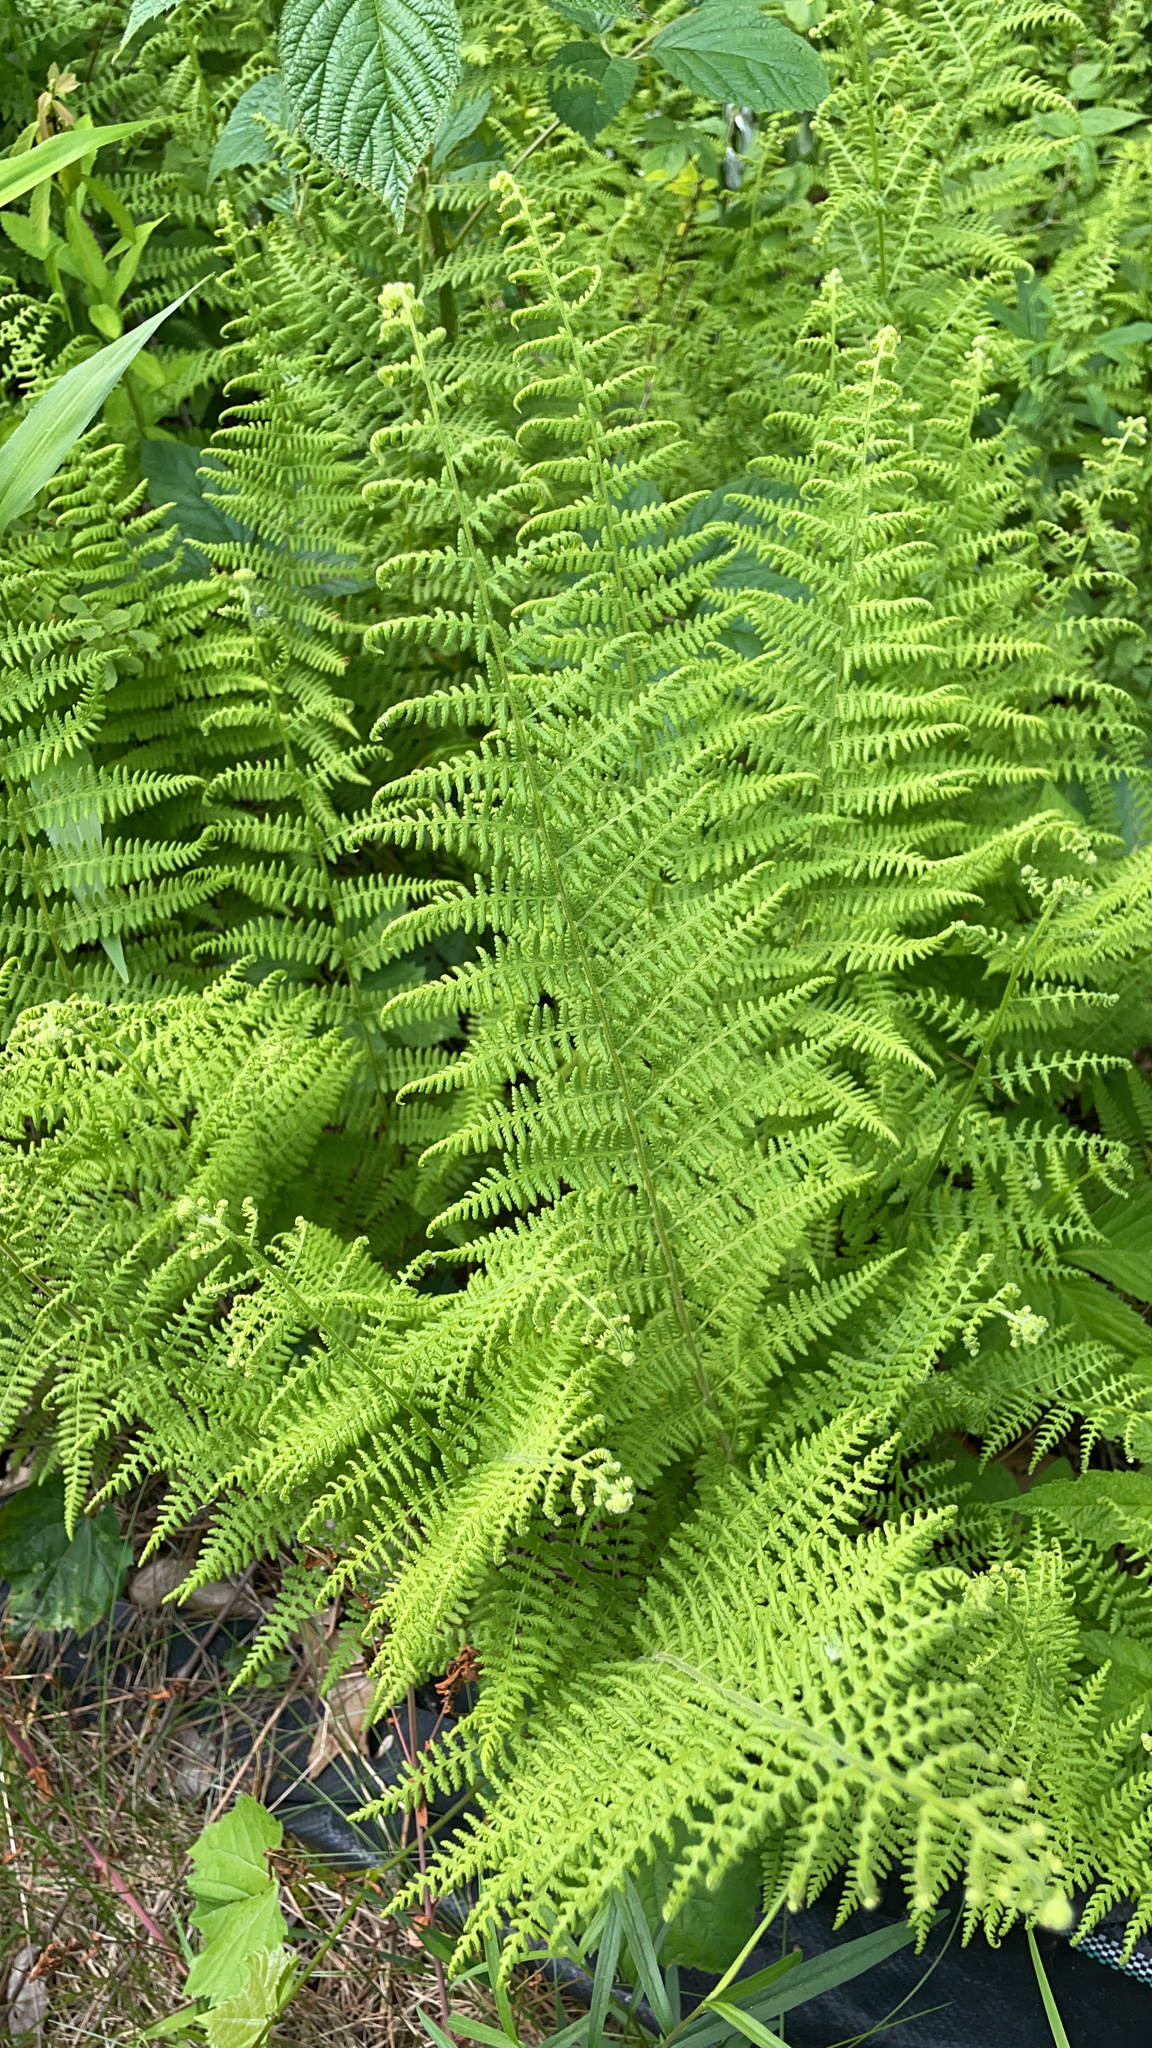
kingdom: Plantae
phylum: Tracheophyta
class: Polypodiopsida
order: Polypodiales
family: Dennstaedtiaceae
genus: Sitobolium
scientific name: Sitobolium punctilobum
